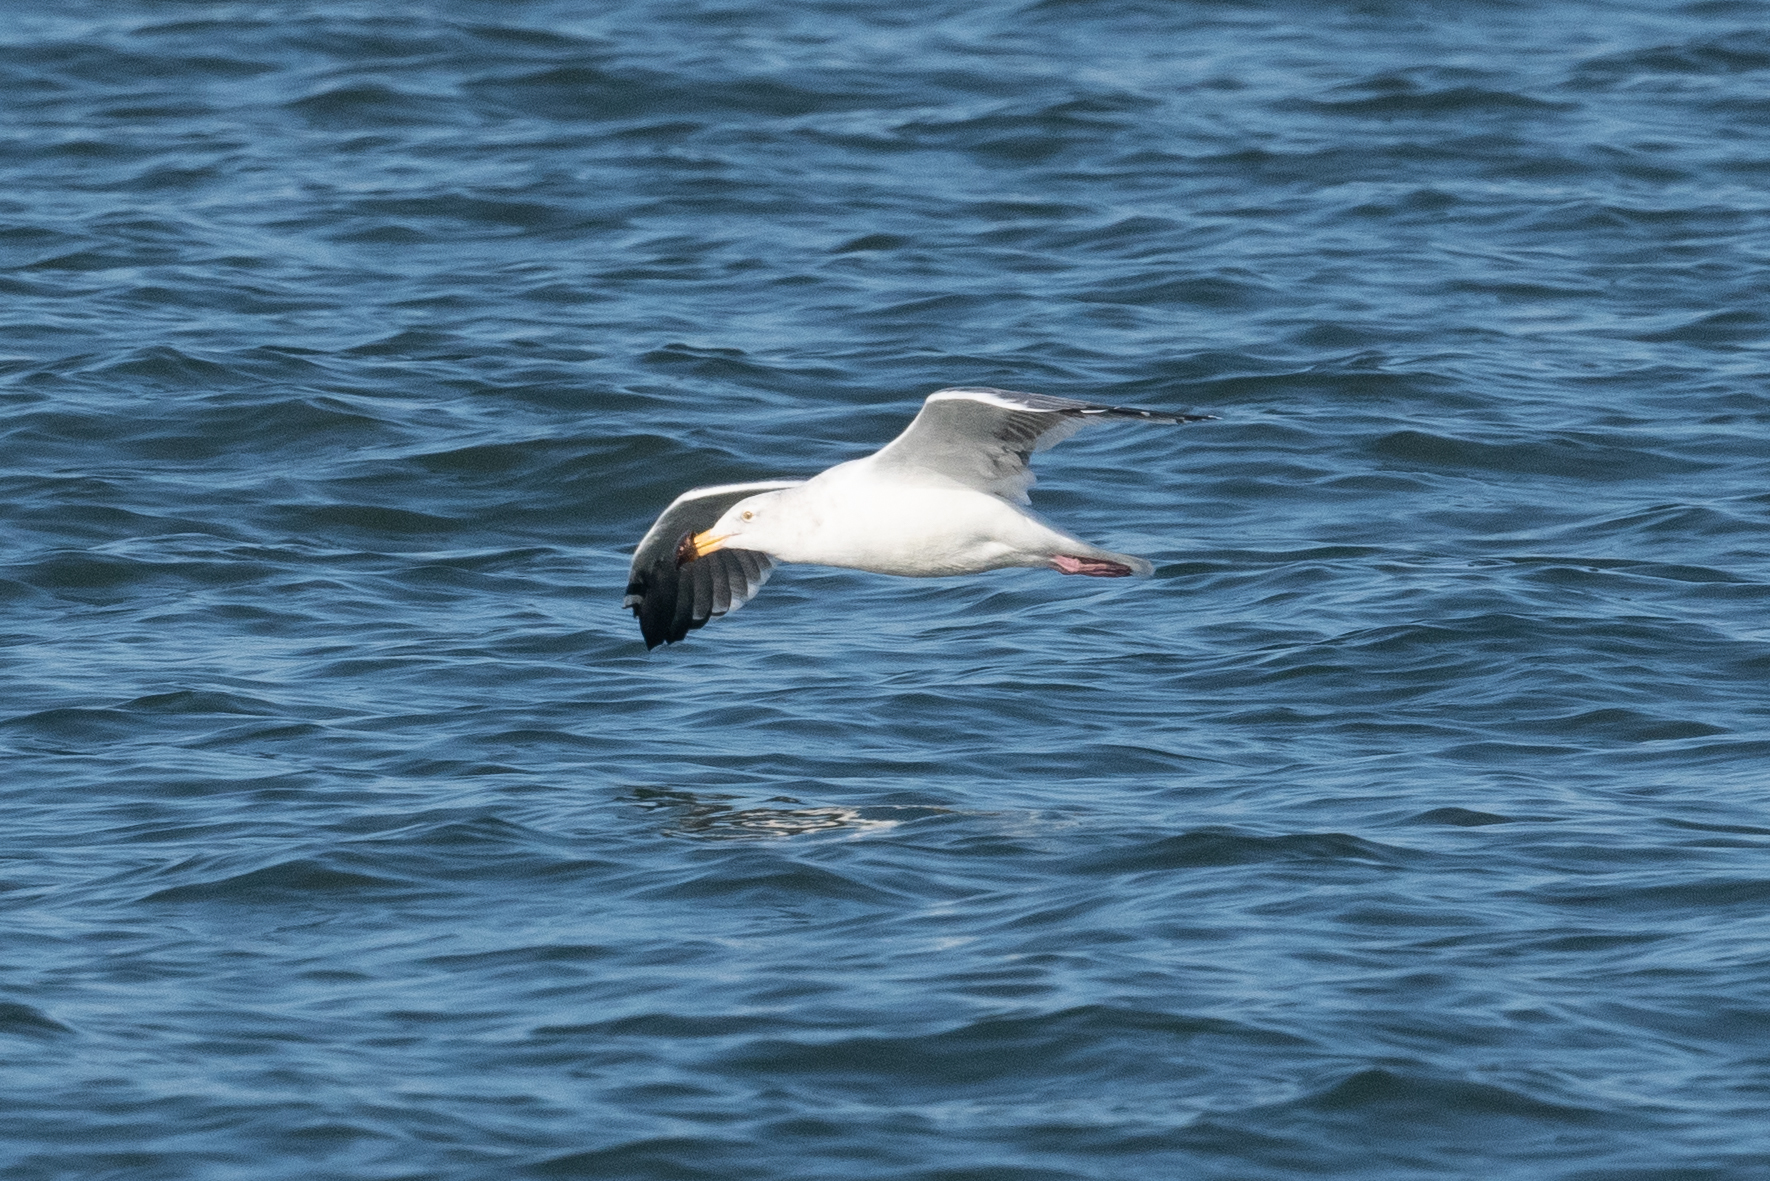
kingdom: Animalia
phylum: Chordata
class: Aves
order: Charadriiformes
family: Laridae
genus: Larus
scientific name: Larus occidentalis
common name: Western gull
